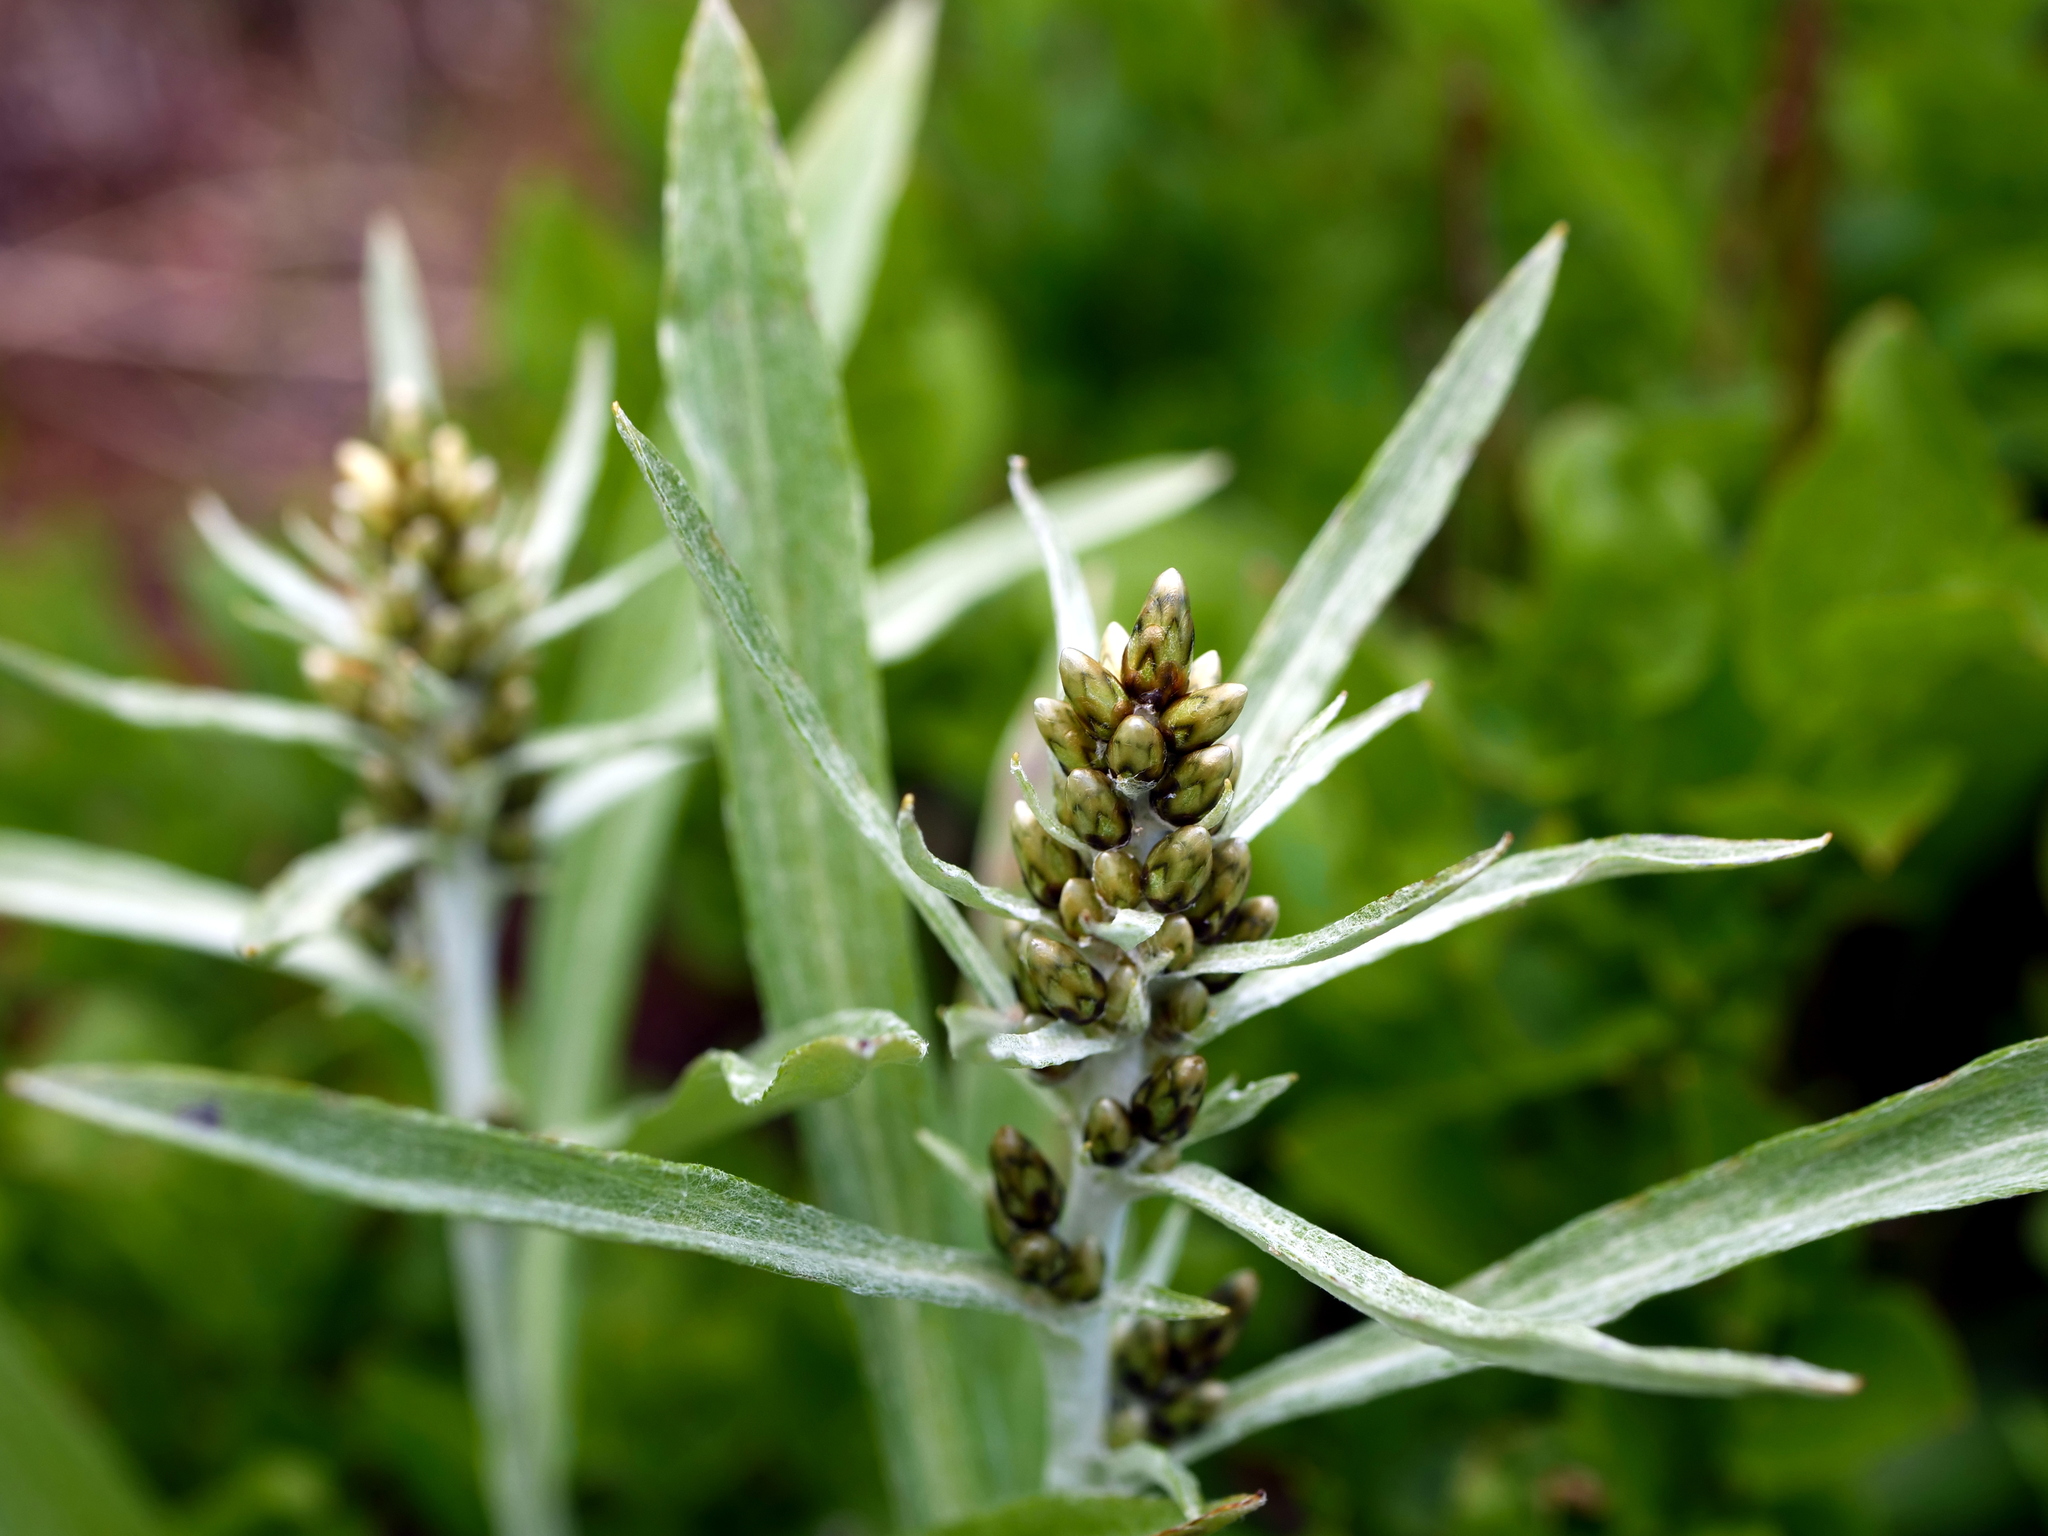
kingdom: Plantae
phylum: Tracheophyta
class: Magnoliopsida
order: Asterales
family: Asteraceae
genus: Omalotheca
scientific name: Omalotheca norvegica
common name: Norwegian arctic-cudweed
